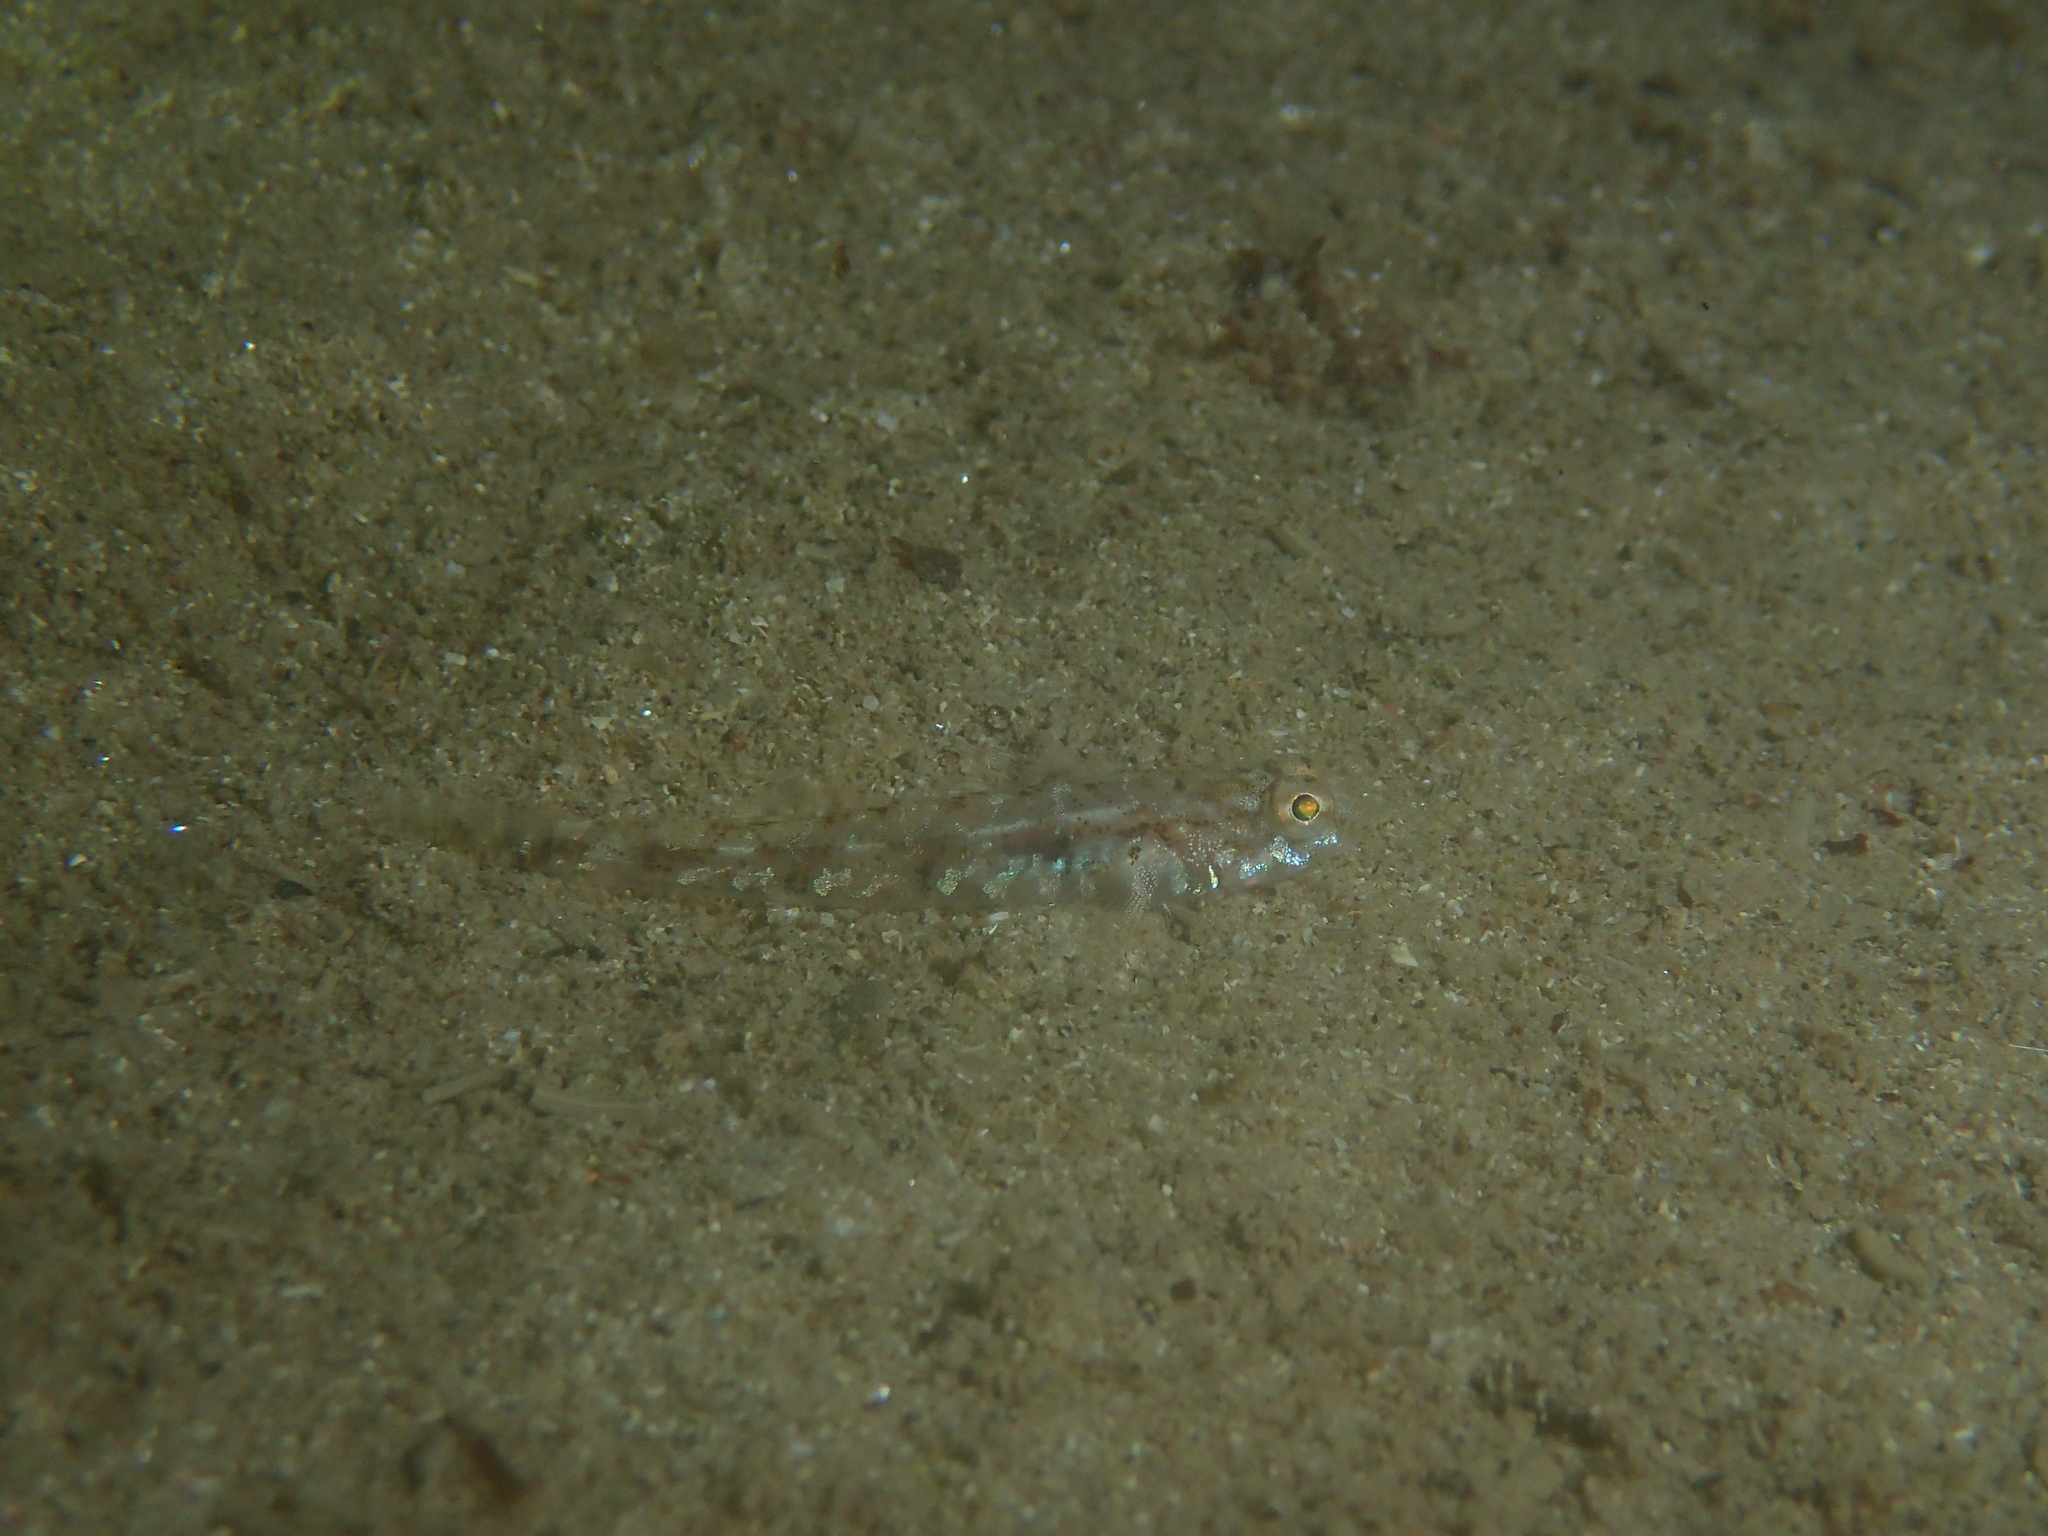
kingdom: Animalia
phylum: Chordata
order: Perciformes
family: Gobiidae
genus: Pomatoschistus
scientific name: Pomatoschistus pictus
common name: Painted goby
